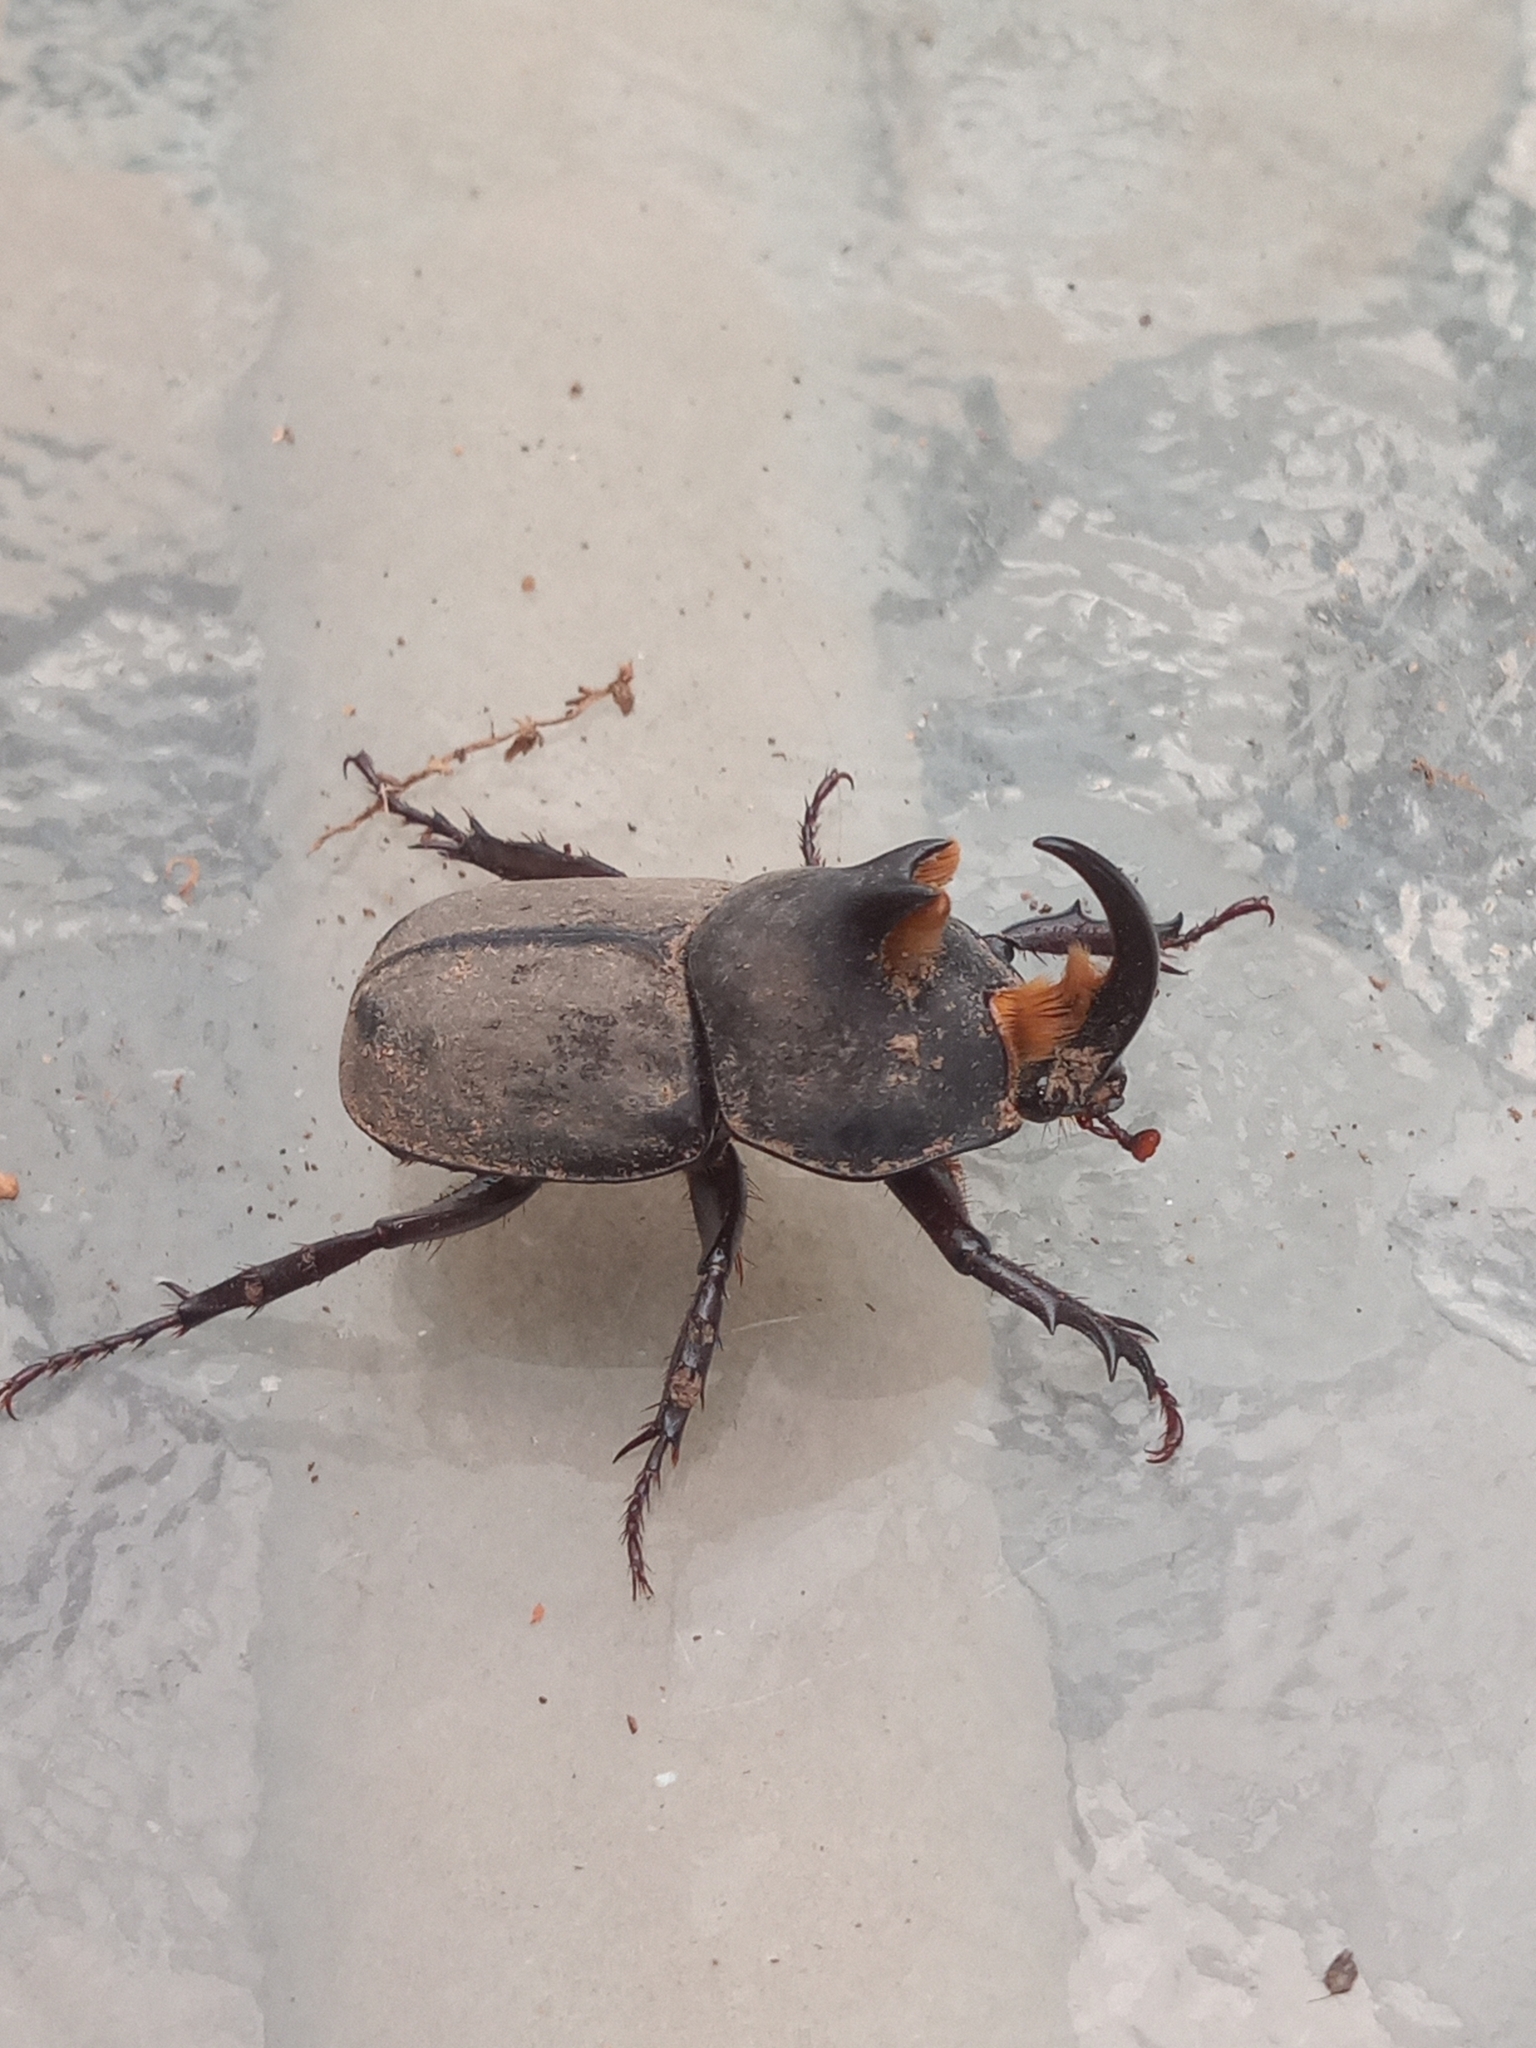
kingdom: Animalia
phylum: Arthropoda
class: Insecta
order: Coleoptera
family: Scarabaeidae
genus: Diloboderus
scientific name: Diloboderus abderus
